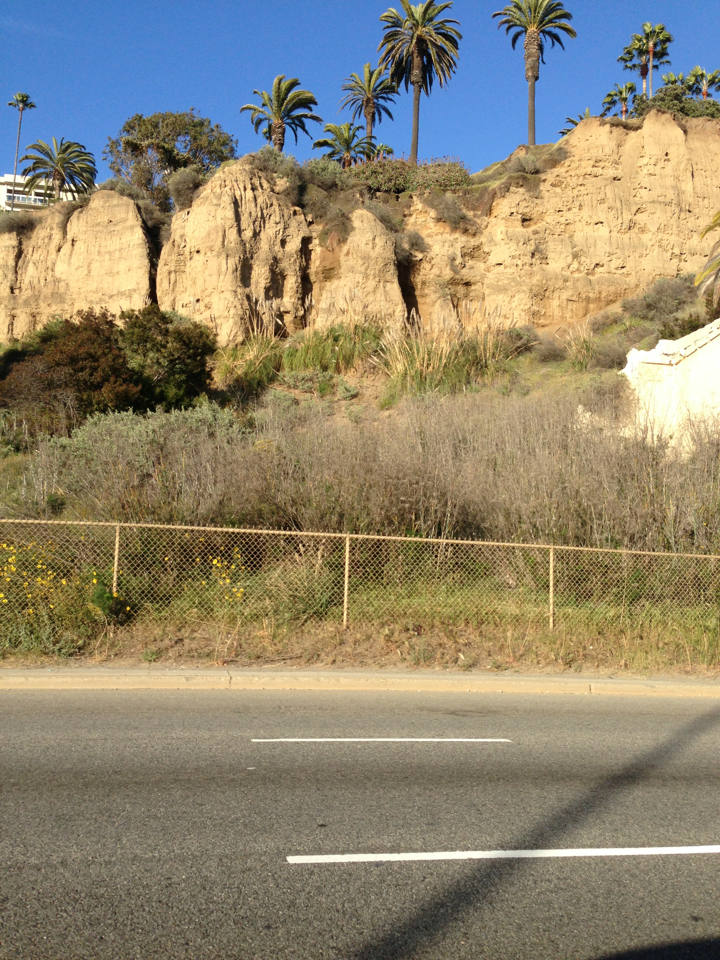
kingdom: Plantae
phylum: Tracheophyta
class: Magnoliopsida
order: Apiales
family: Apiaceae
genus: Foeniculum
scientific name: Foeniculum vulgare
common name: Fennel
